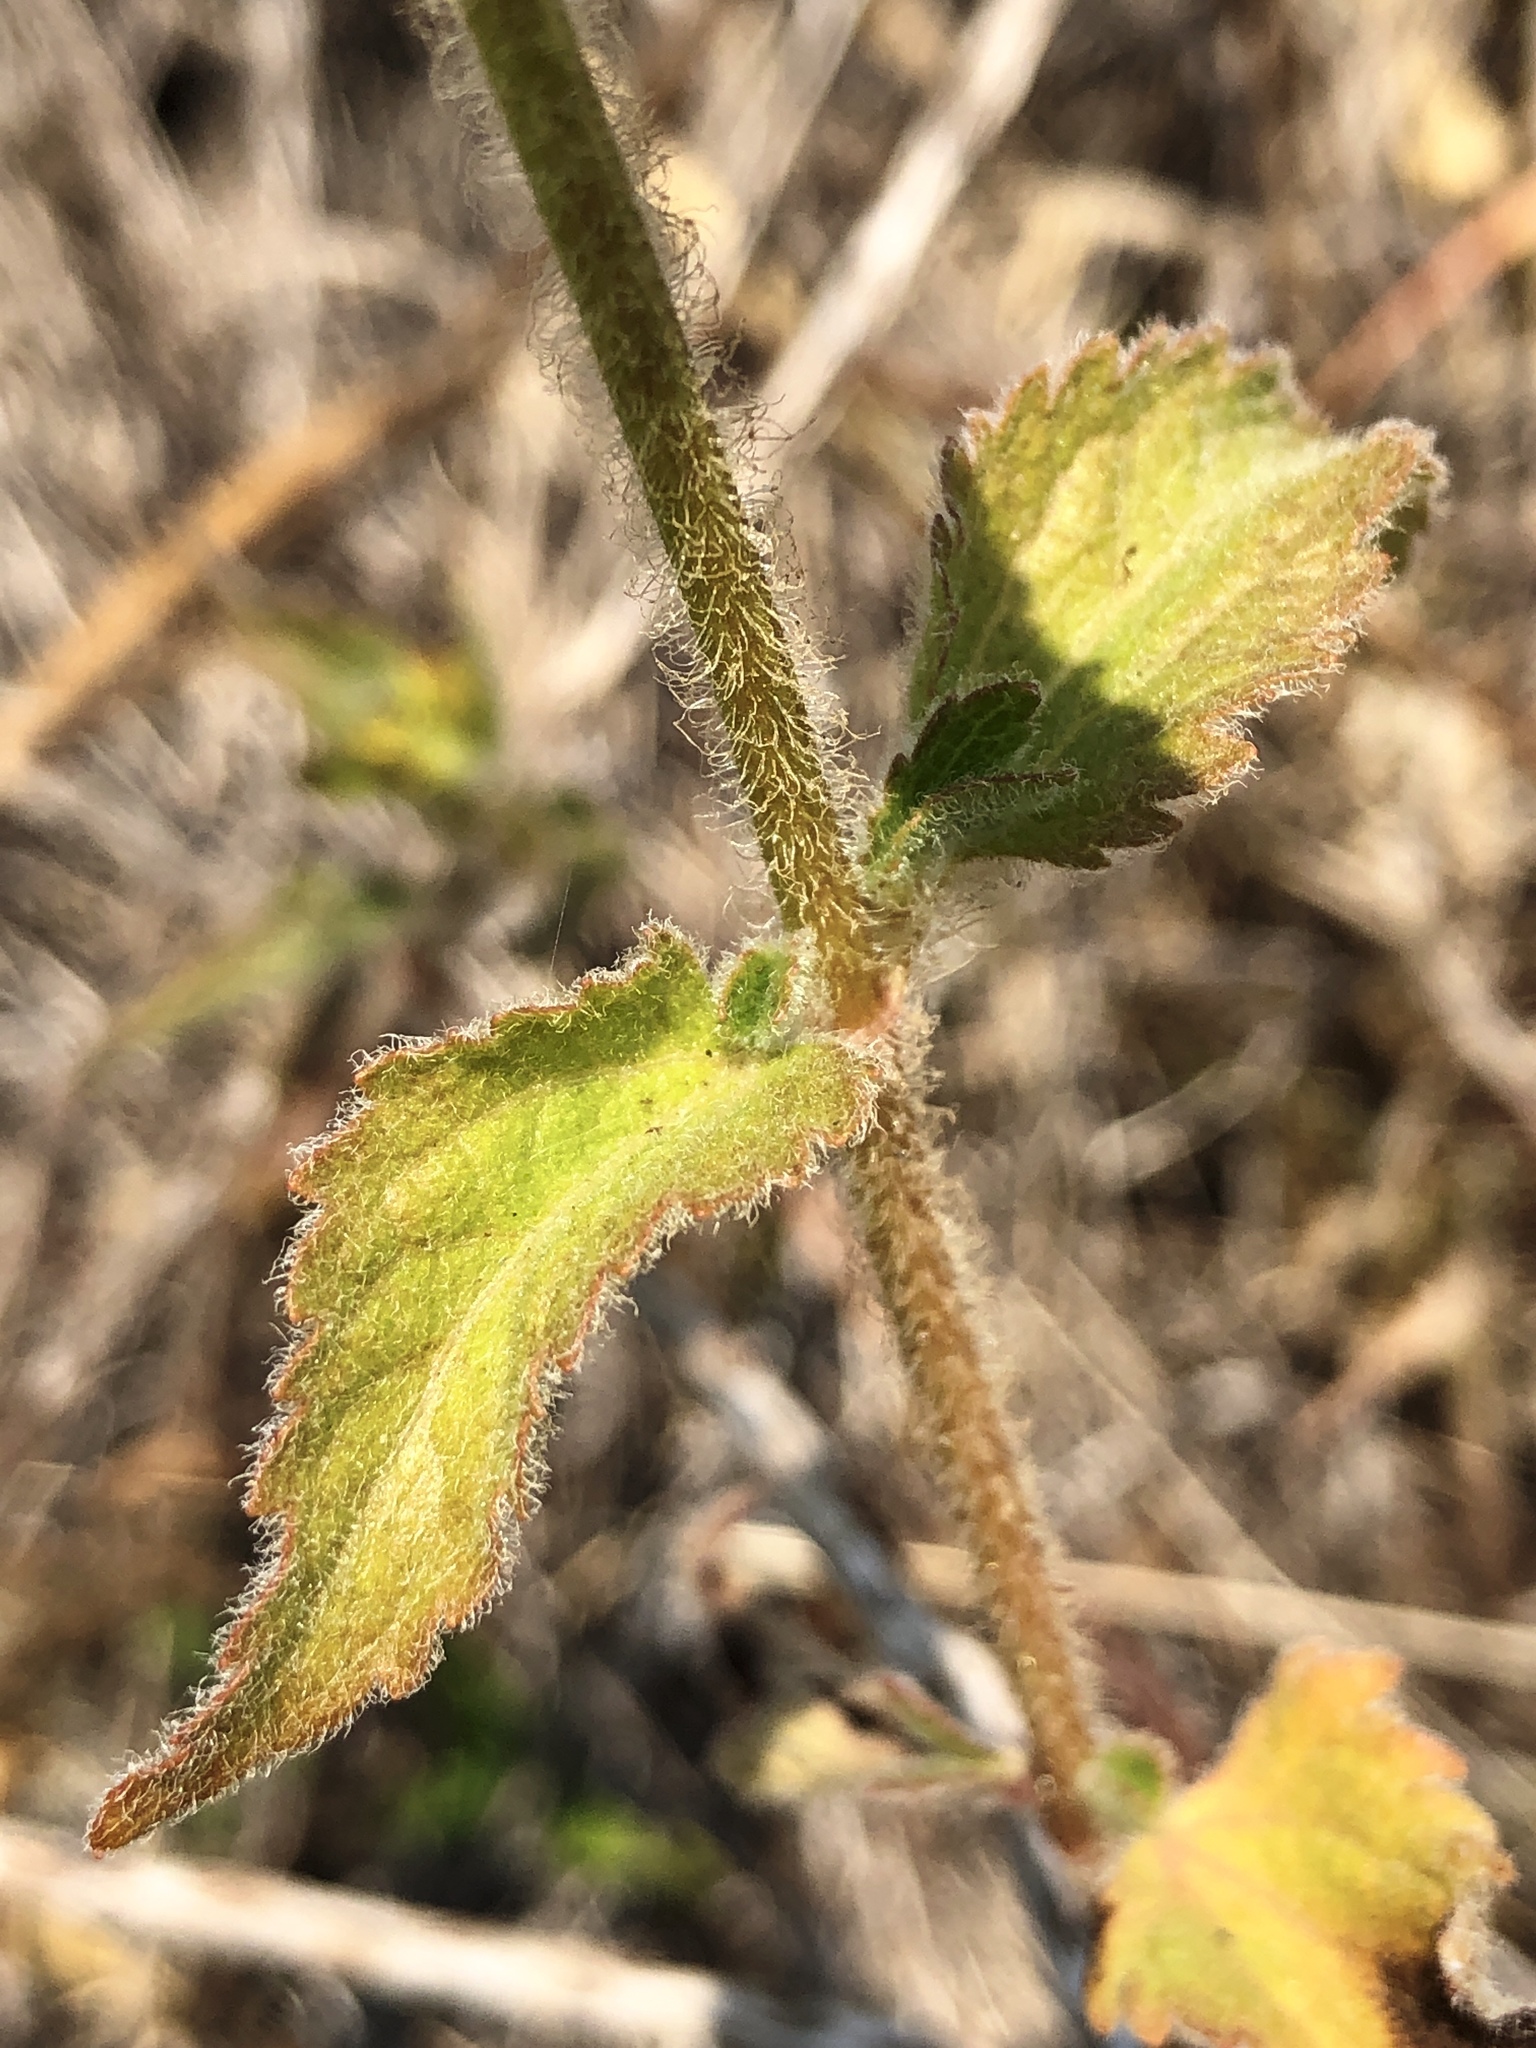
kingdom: Plantae
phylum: Tracheophyta
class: Magnoliopsida
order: Asterales
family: Asteraceae
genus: Praxelis
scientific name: Praxelis clematidea
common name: Praxelis
